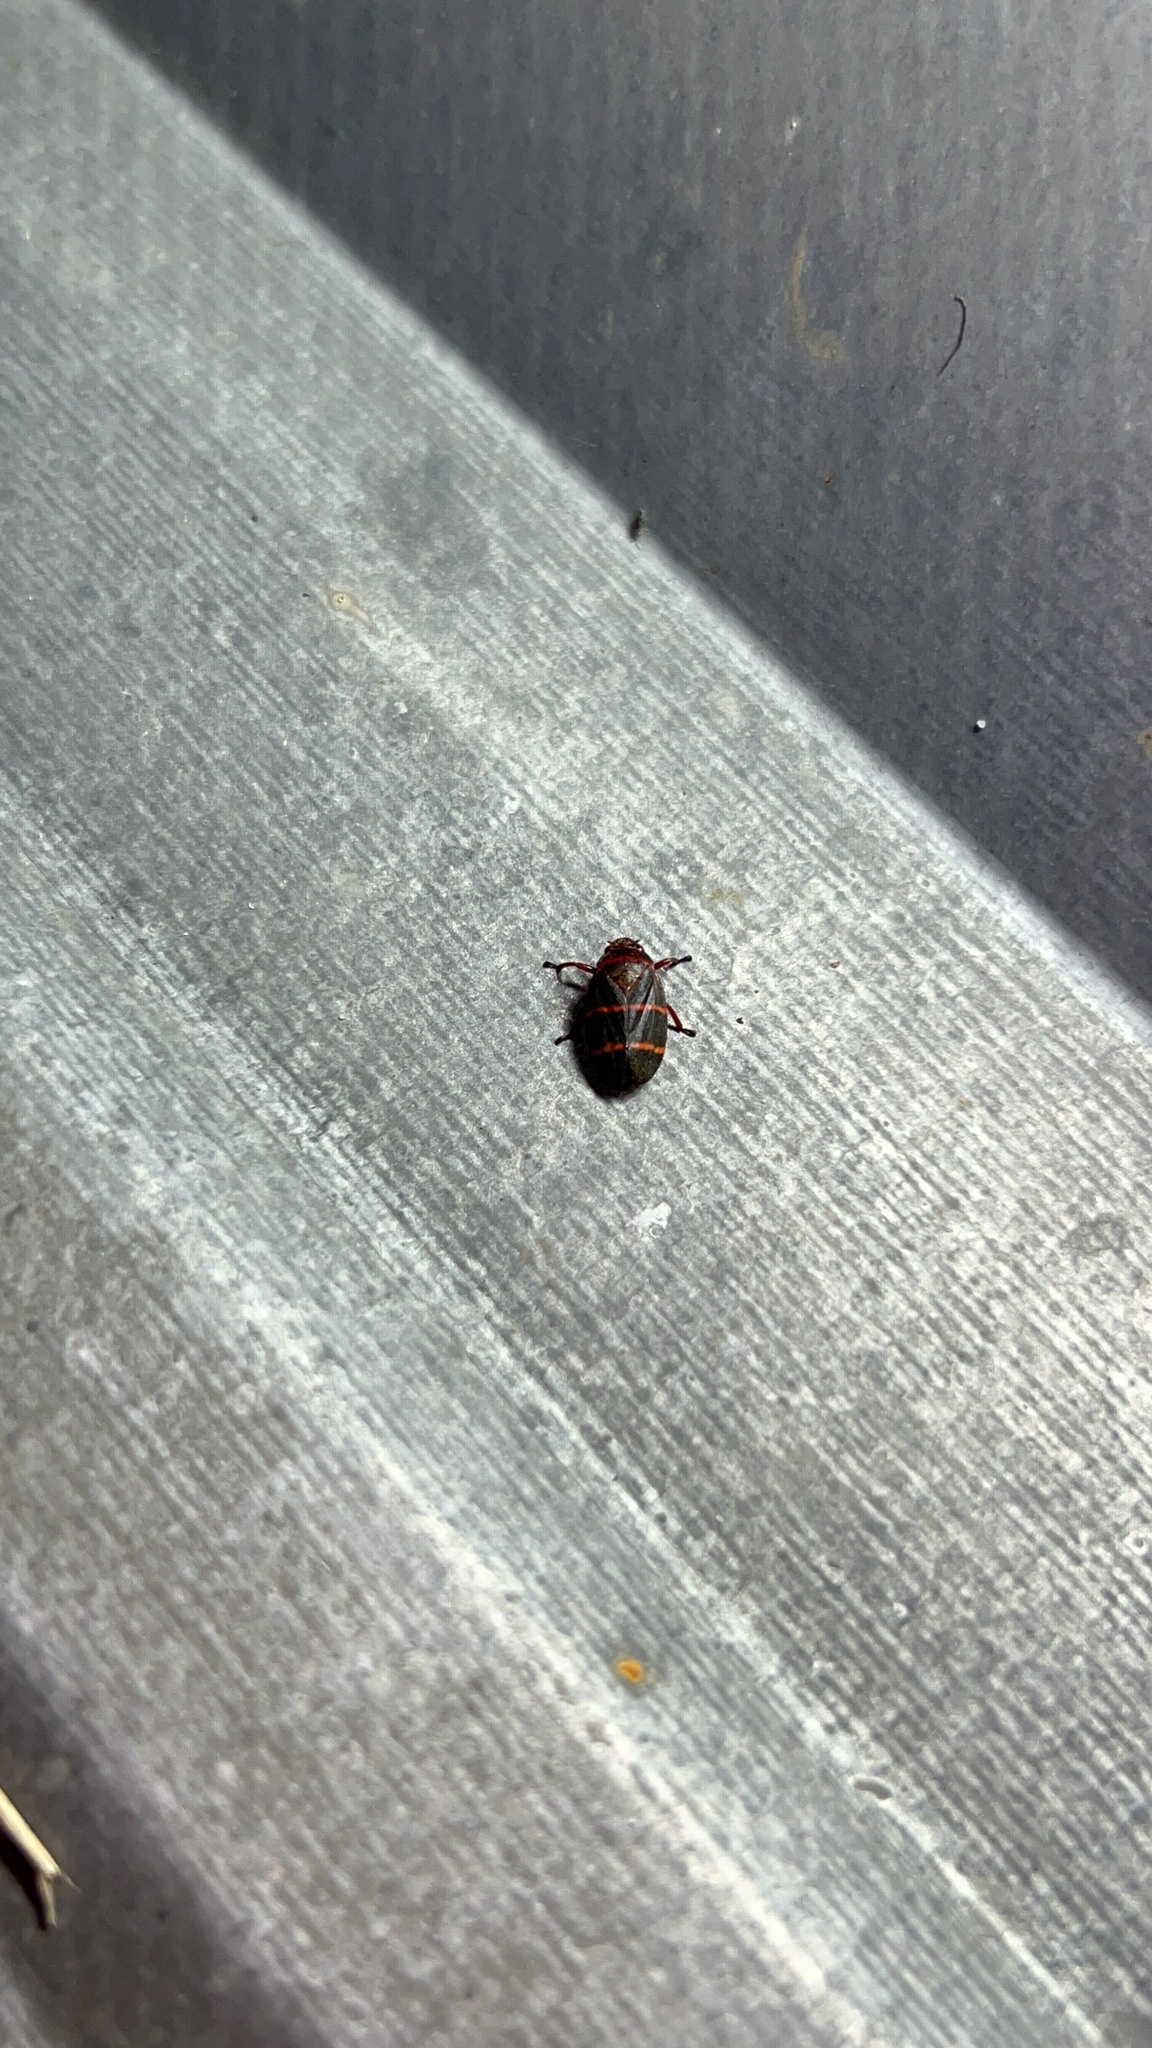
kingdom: Animalia
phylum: Arthropoda
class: Insecta
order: Hemiptera
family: Cercopidae
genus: Prosapia
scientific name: Prosapia bicincta
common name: Twolined spittlebug
